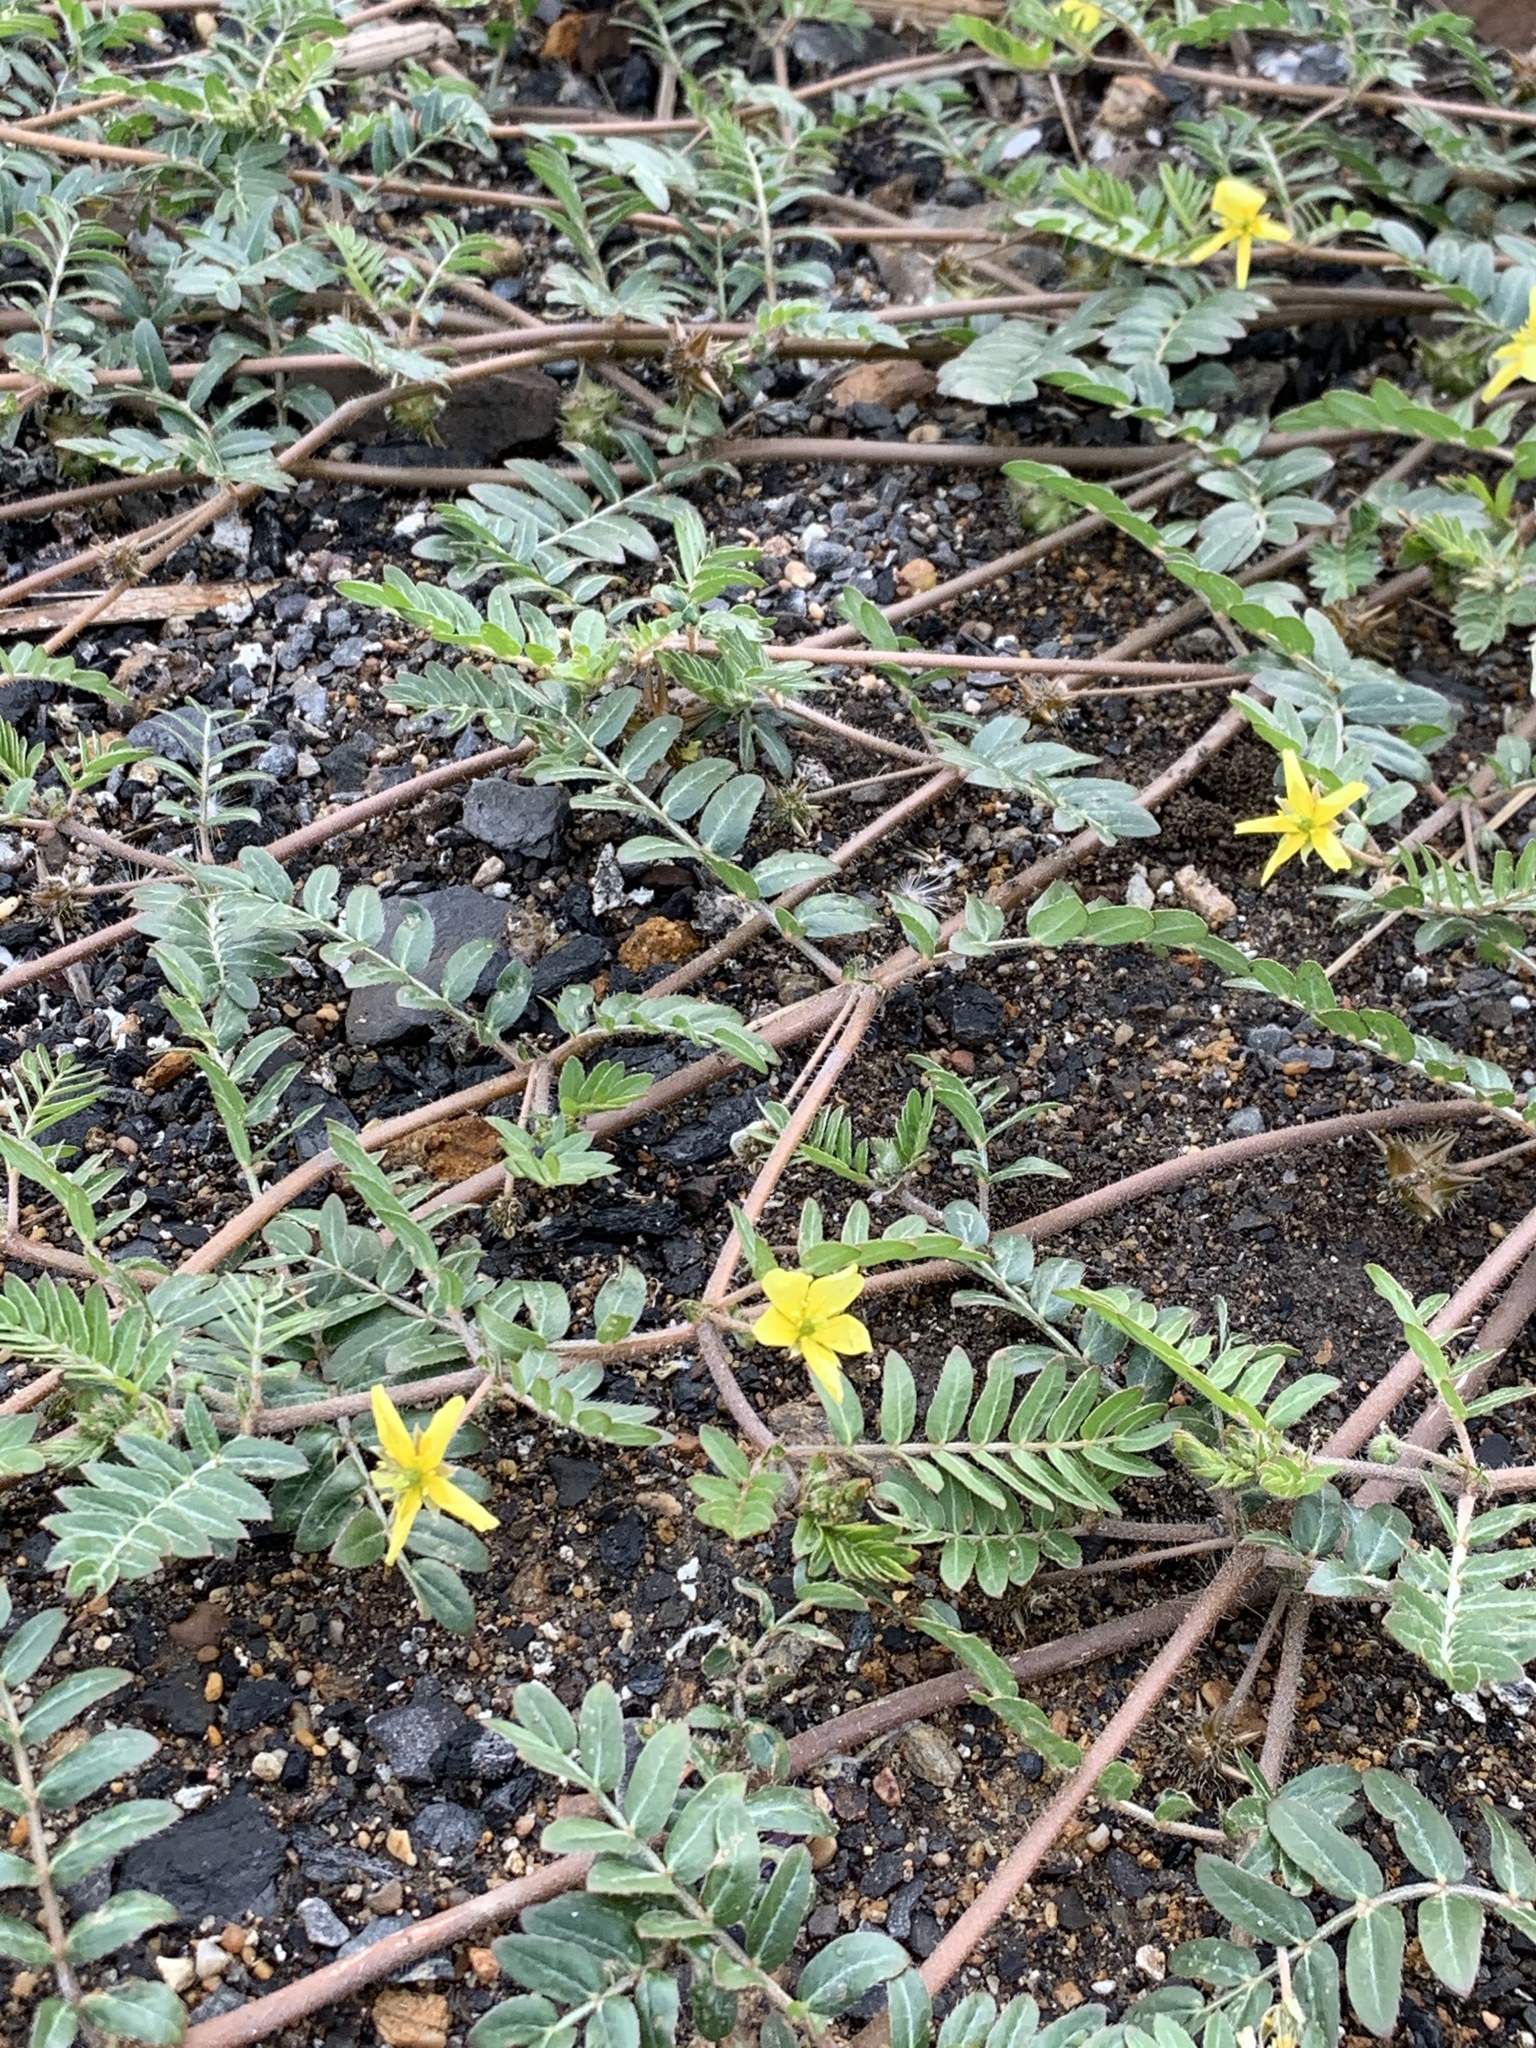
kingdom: Plantae
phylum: Tracheophyta
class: Magnoliopsida
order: Zygophyllales
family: Zygophyllaceae
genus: Tribulus
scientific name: Tribulus terrestris
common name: Puncturevine
